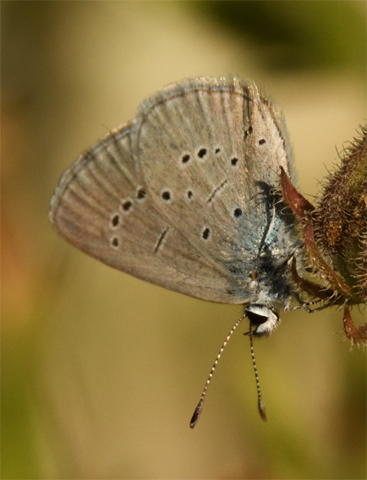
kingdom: Animalia
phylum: Arthropoda
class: Insecta
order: Lepidoptera
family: Lycaenidae
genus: Everes
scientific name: Everes sebrus
